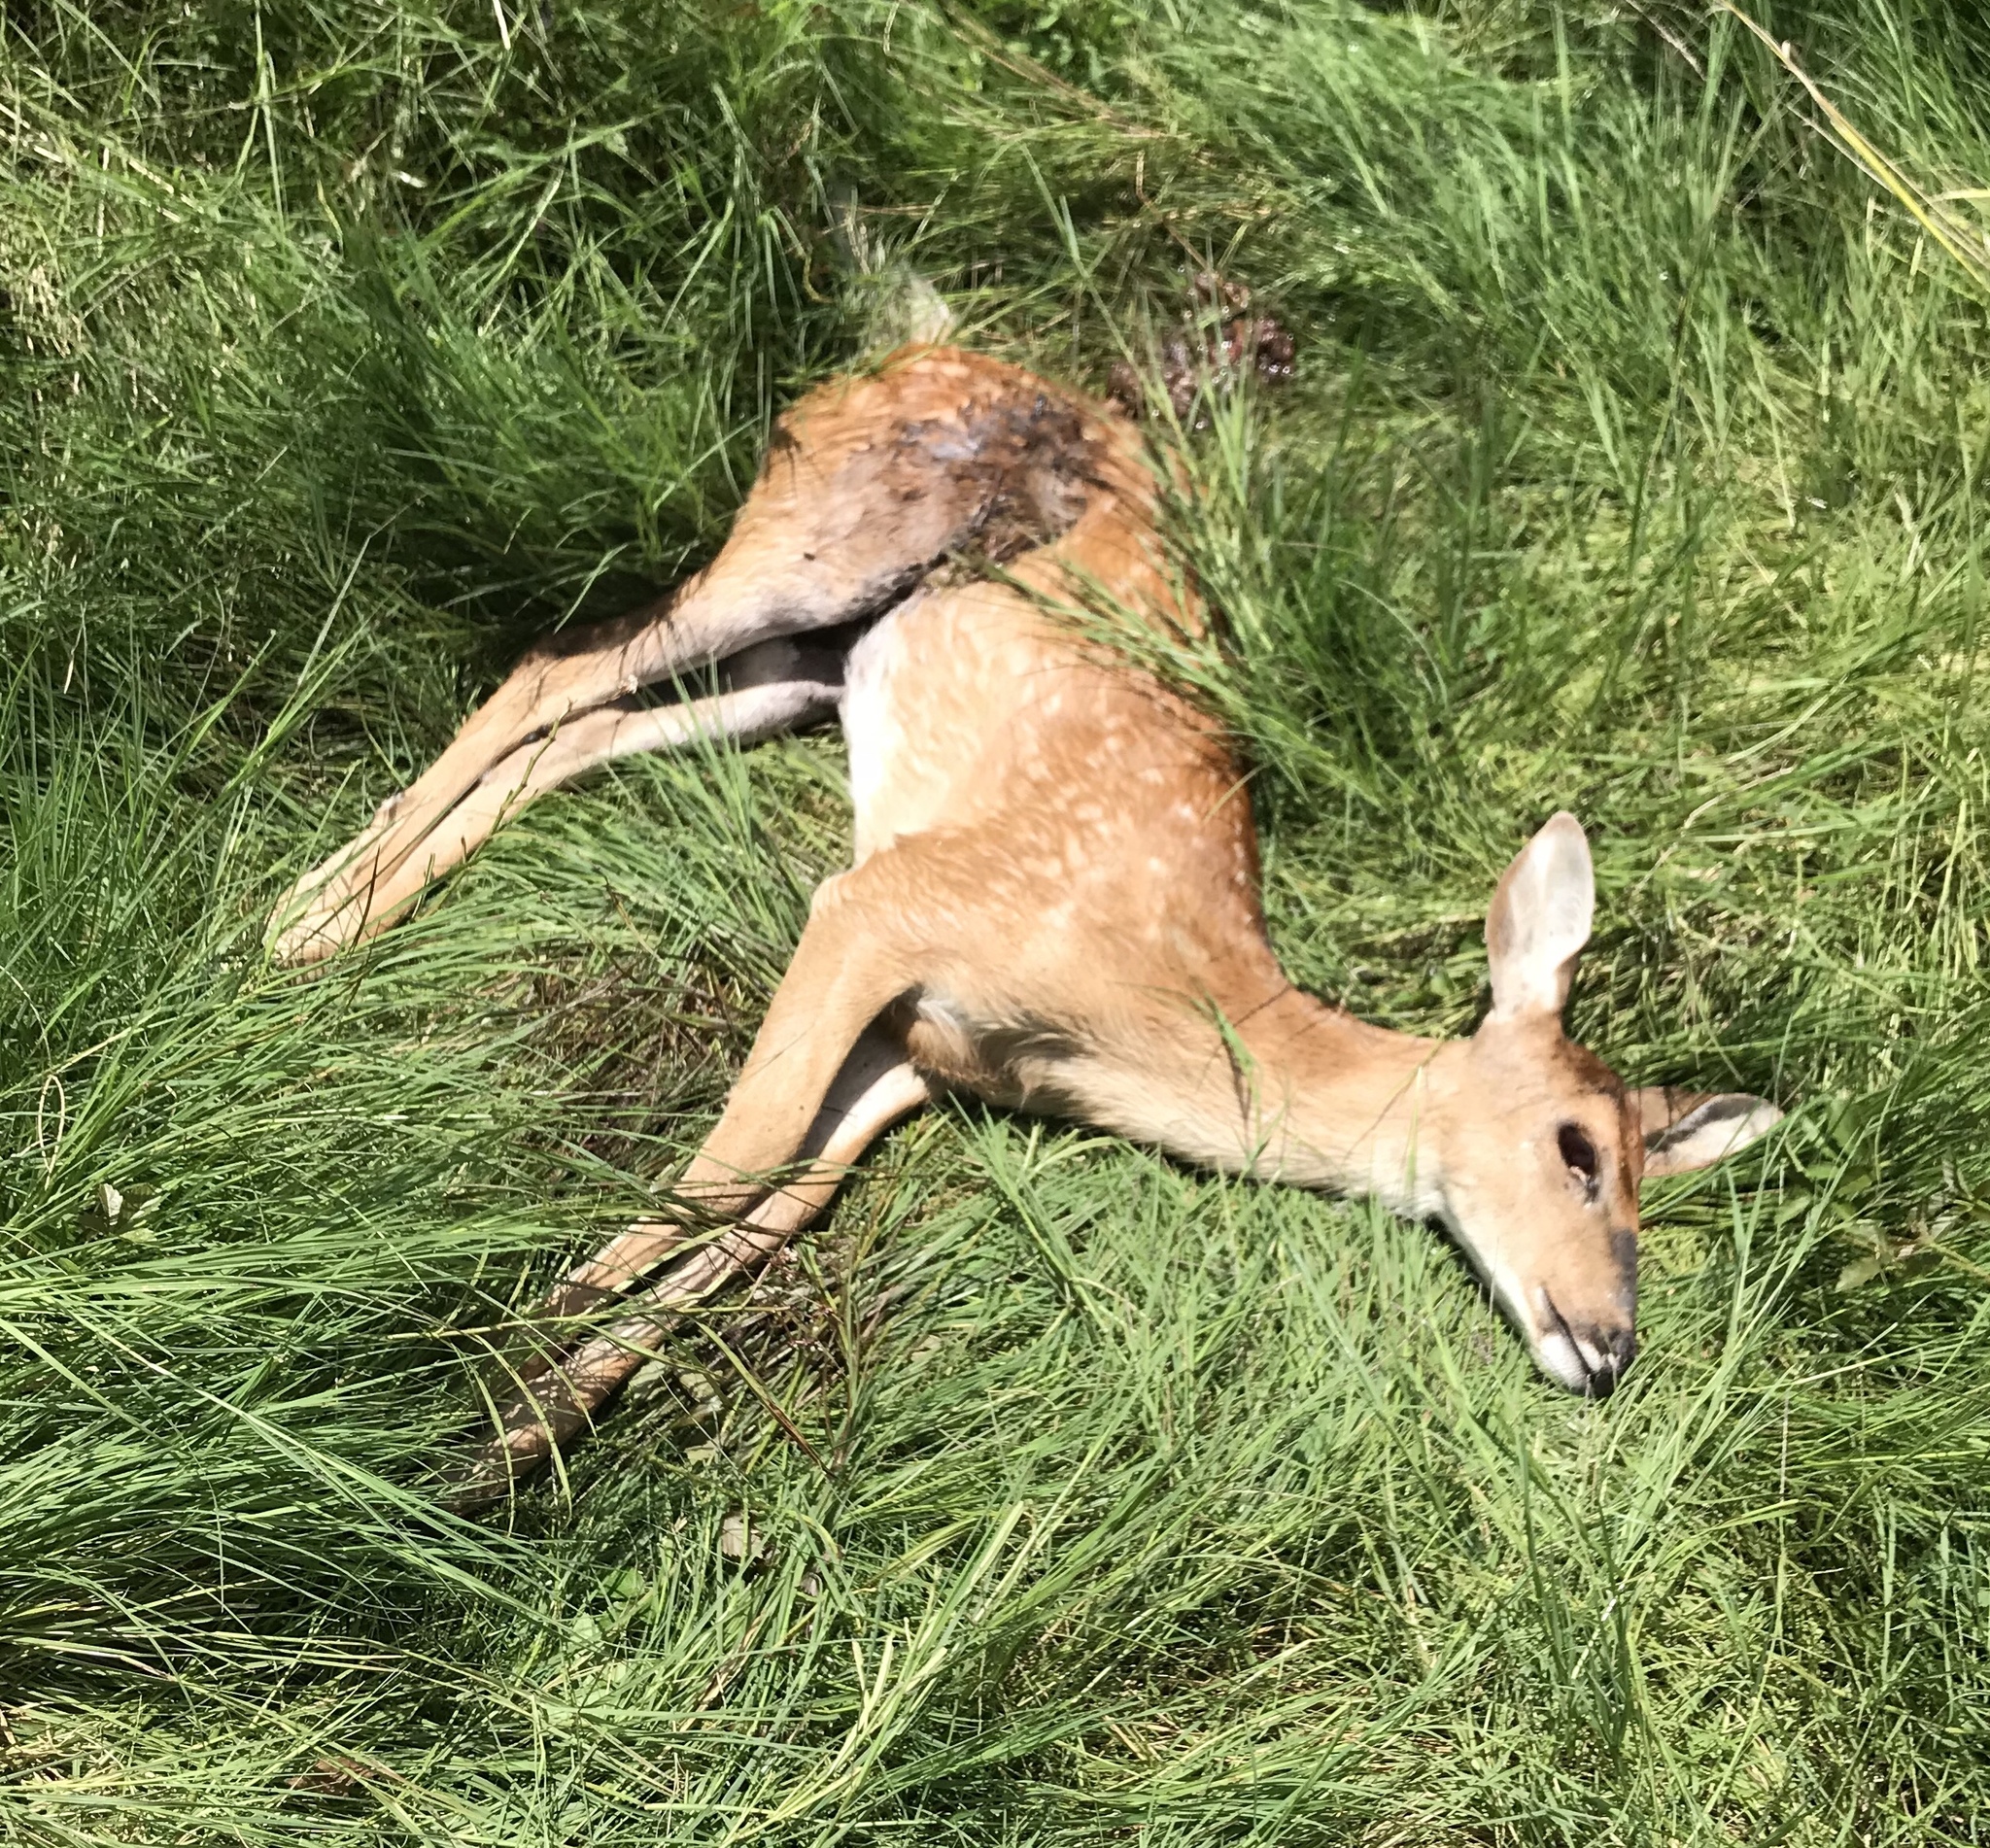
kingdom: Animalia
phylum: Chordata
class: Mammalia
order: Artiodactyla
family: Cervidae
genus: Odocoileus
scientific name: Odocoileus virginianus
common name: White-tailed deer
